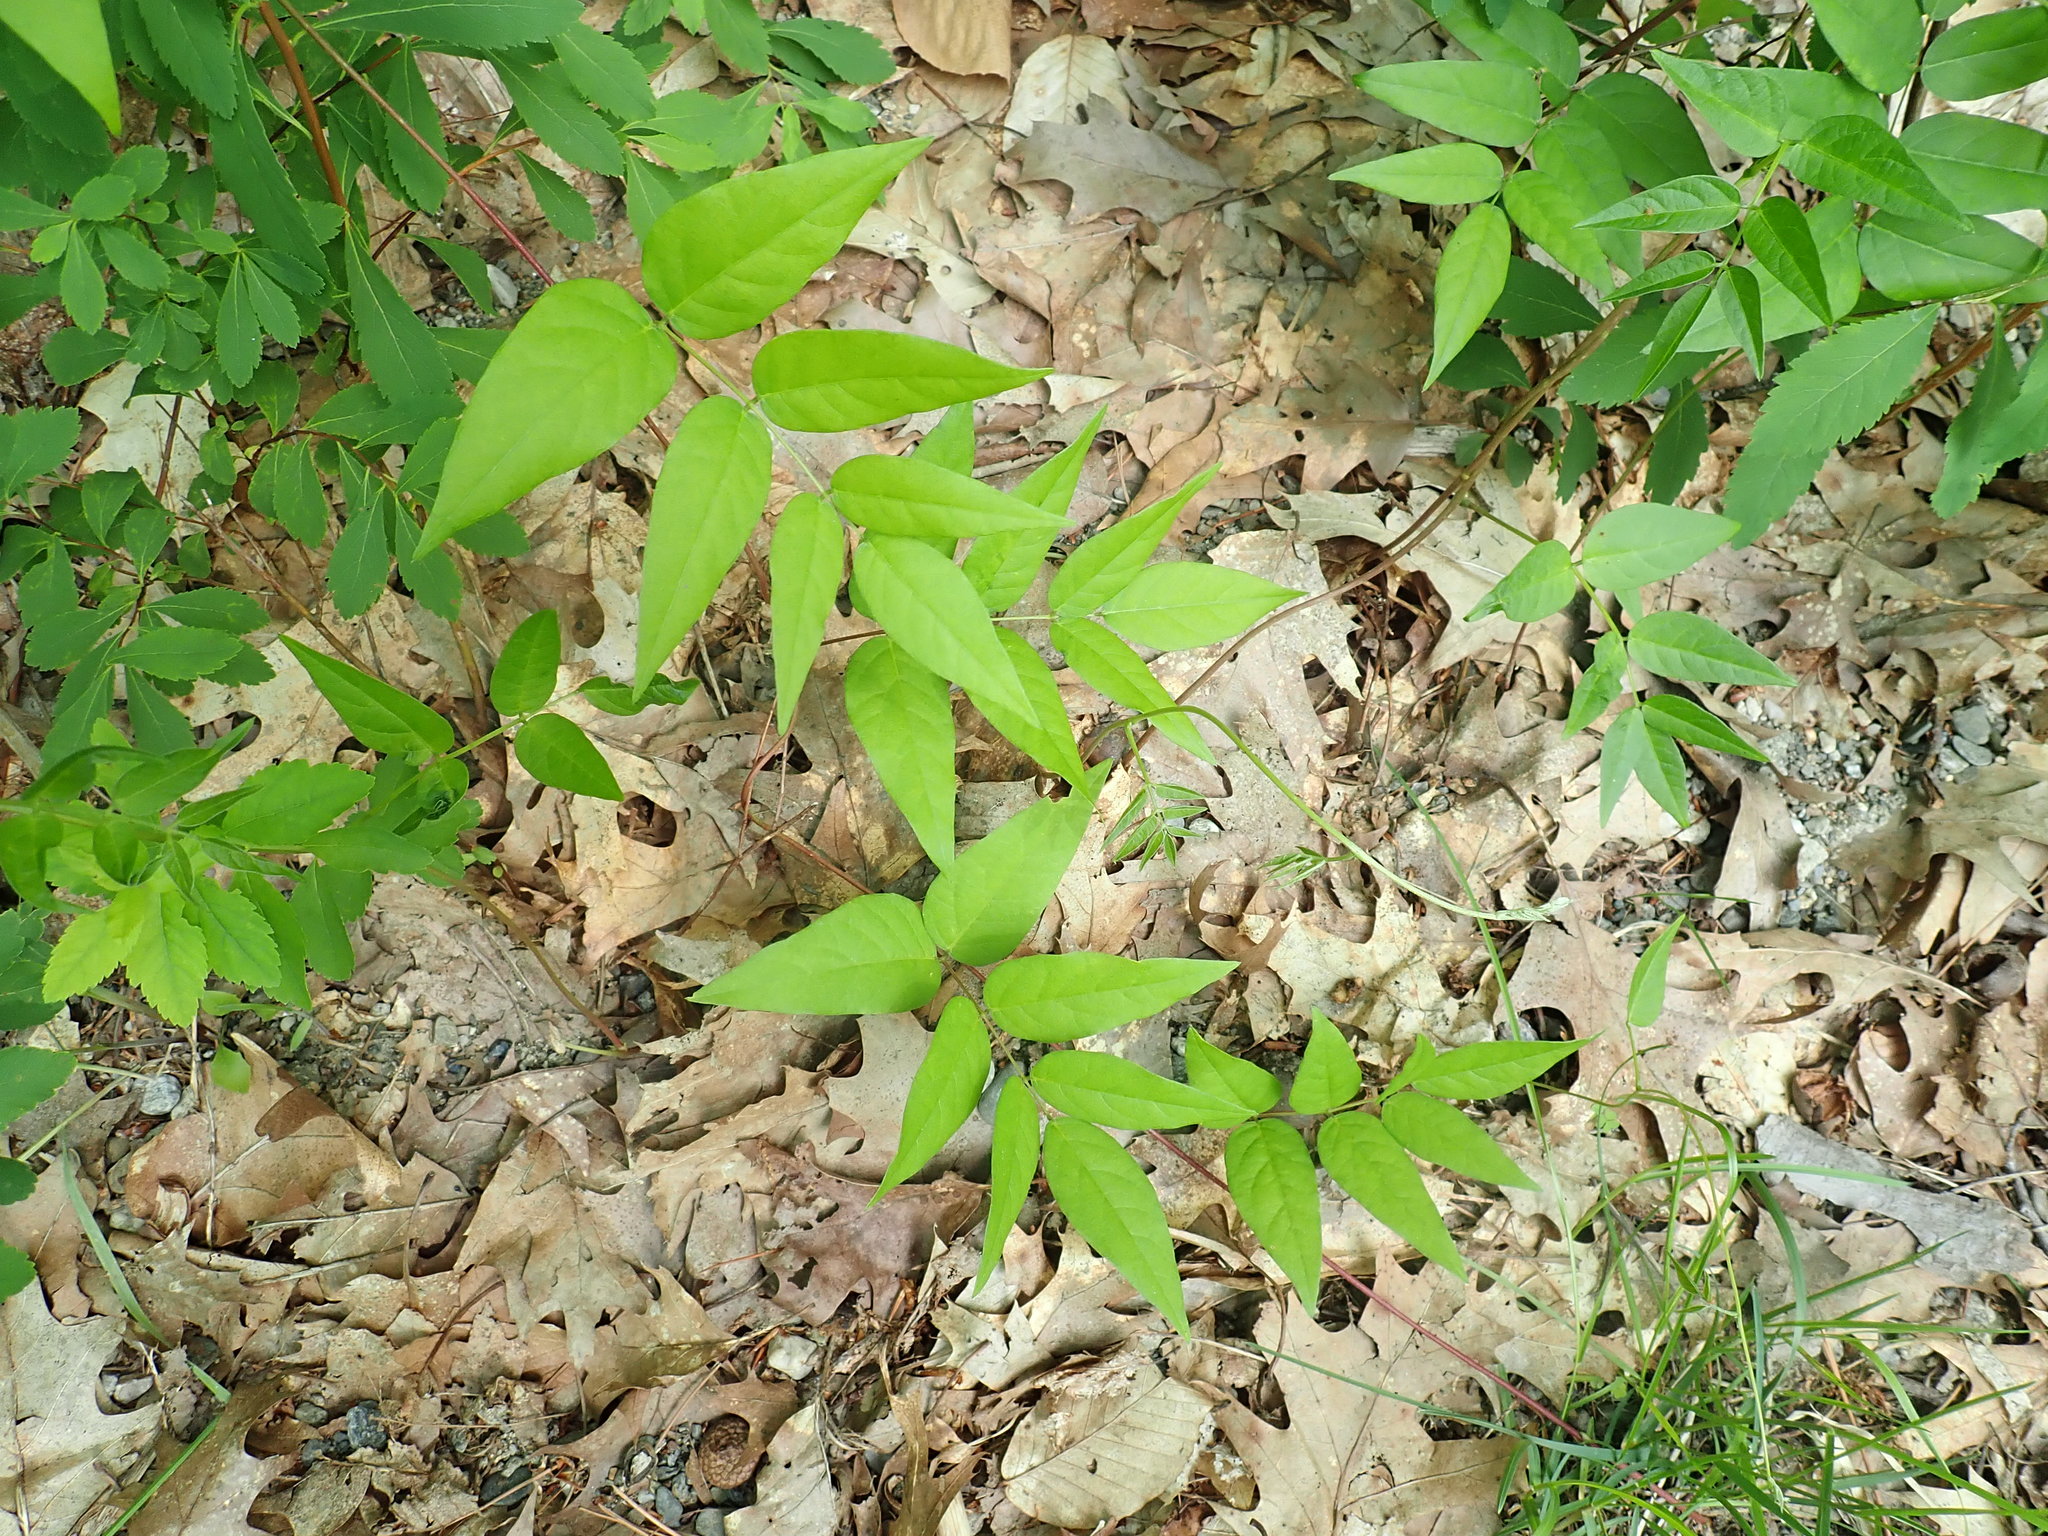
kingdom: Plantae
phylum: Tracheophyta
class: Magnoliopsida
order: Fabales
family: Fabaceae
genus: Apios
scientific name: Apios americana
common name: American potato-bean
